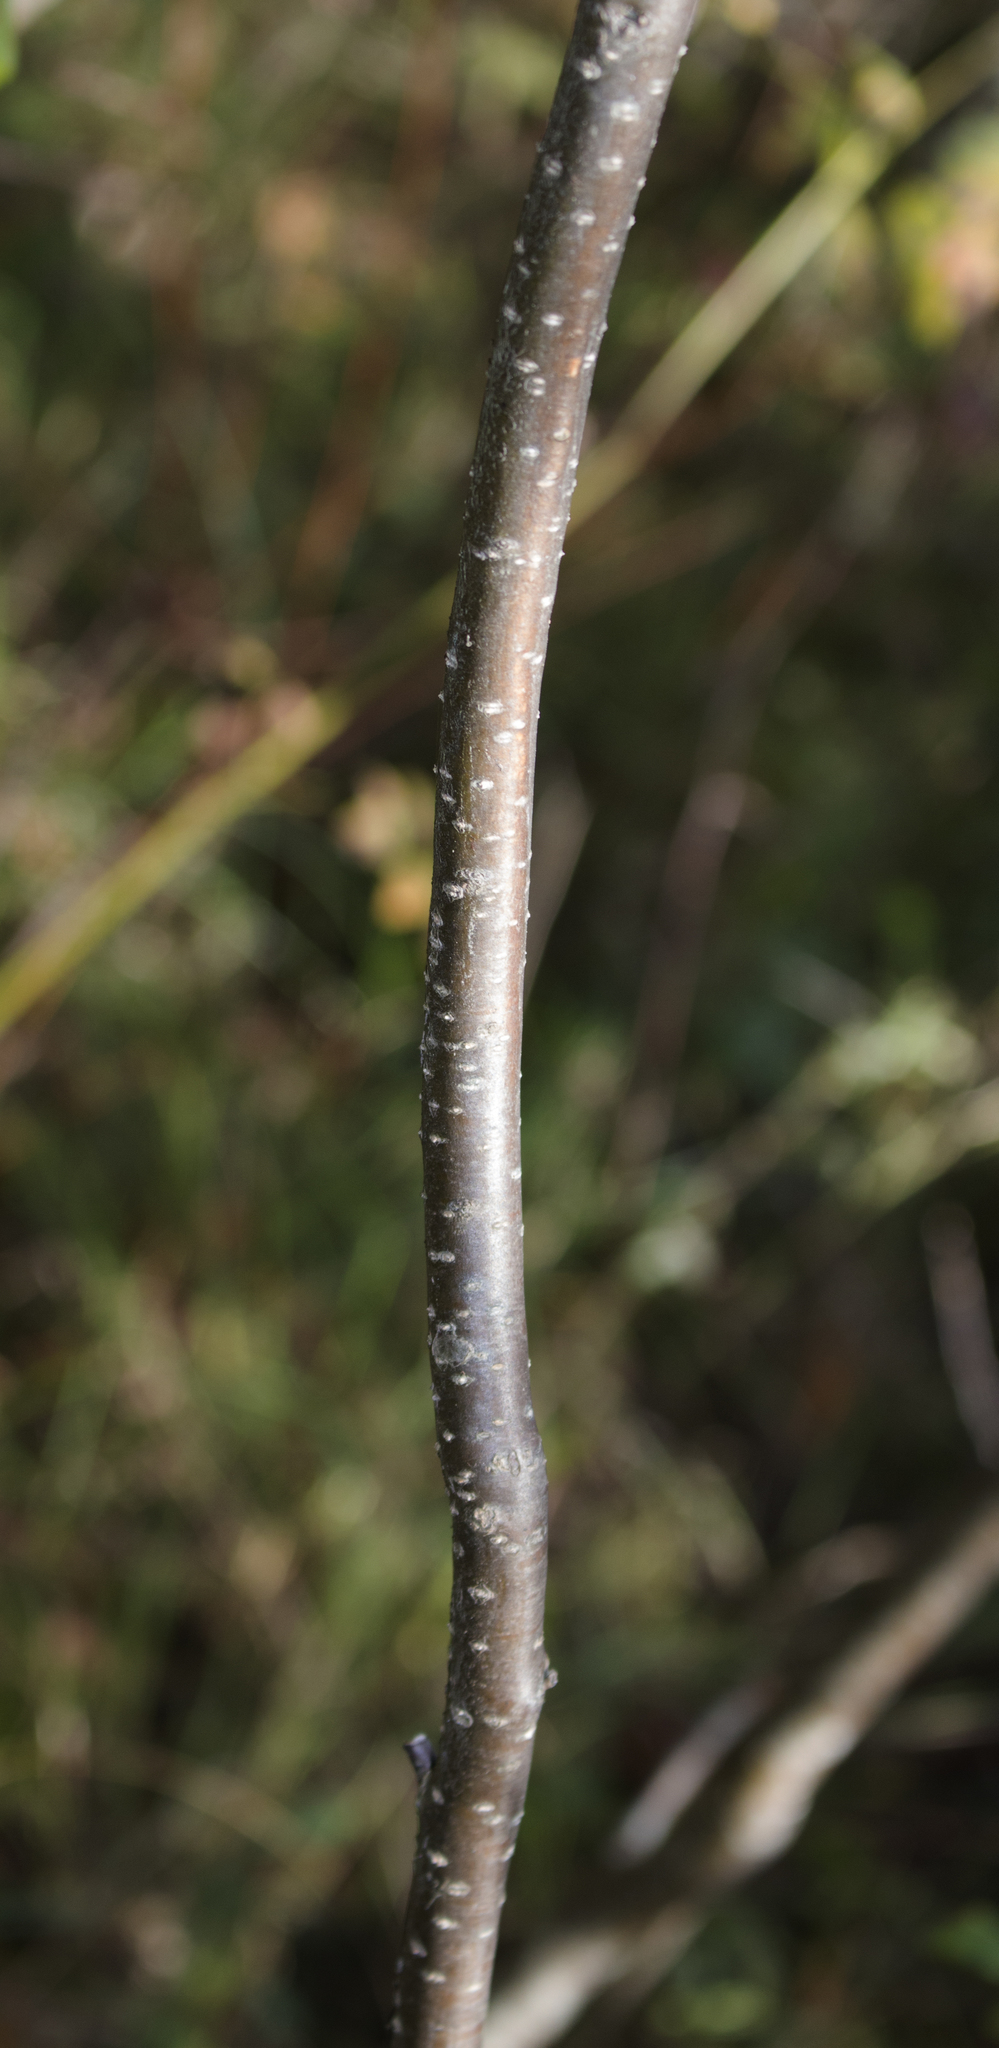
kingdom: Plantae
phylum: Tracheophyta
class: Magnoliopsida
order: Aquifoliales
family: Aquifoliaceae
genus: Ilex
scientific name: Ilex verticillata
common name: Virginia winterberry
